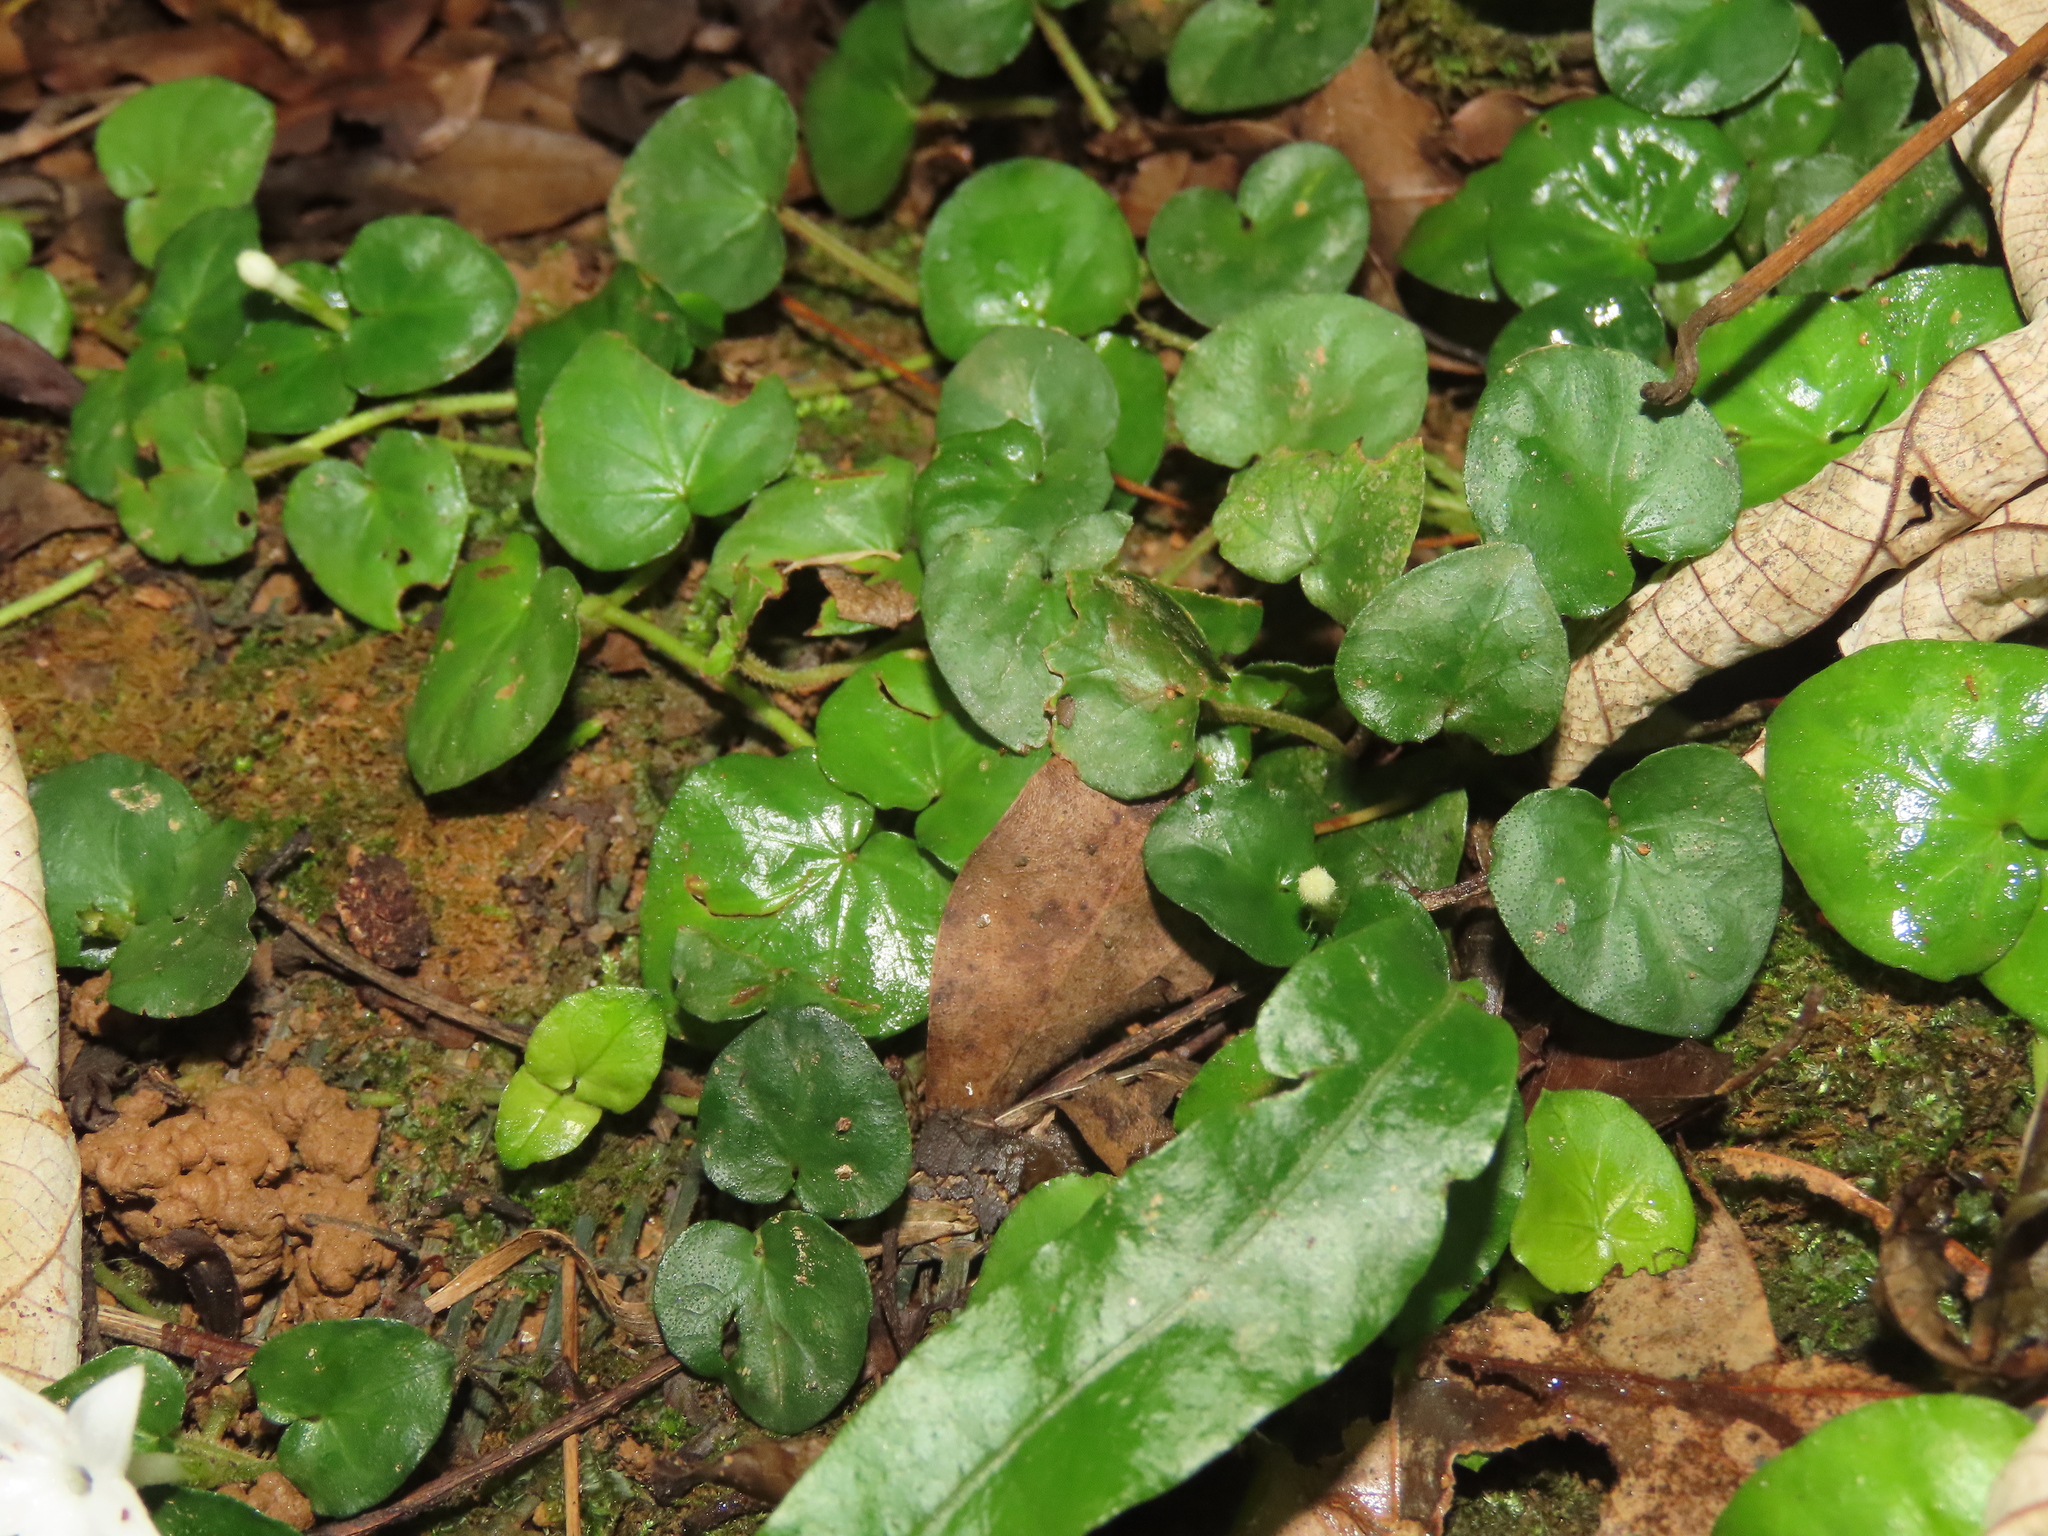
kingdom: Plantae
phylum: Tracheophyta
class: Magnoliopsida
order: Gentianales
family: Rubiaceae
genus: Geophila
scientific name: Geophila herbacea
